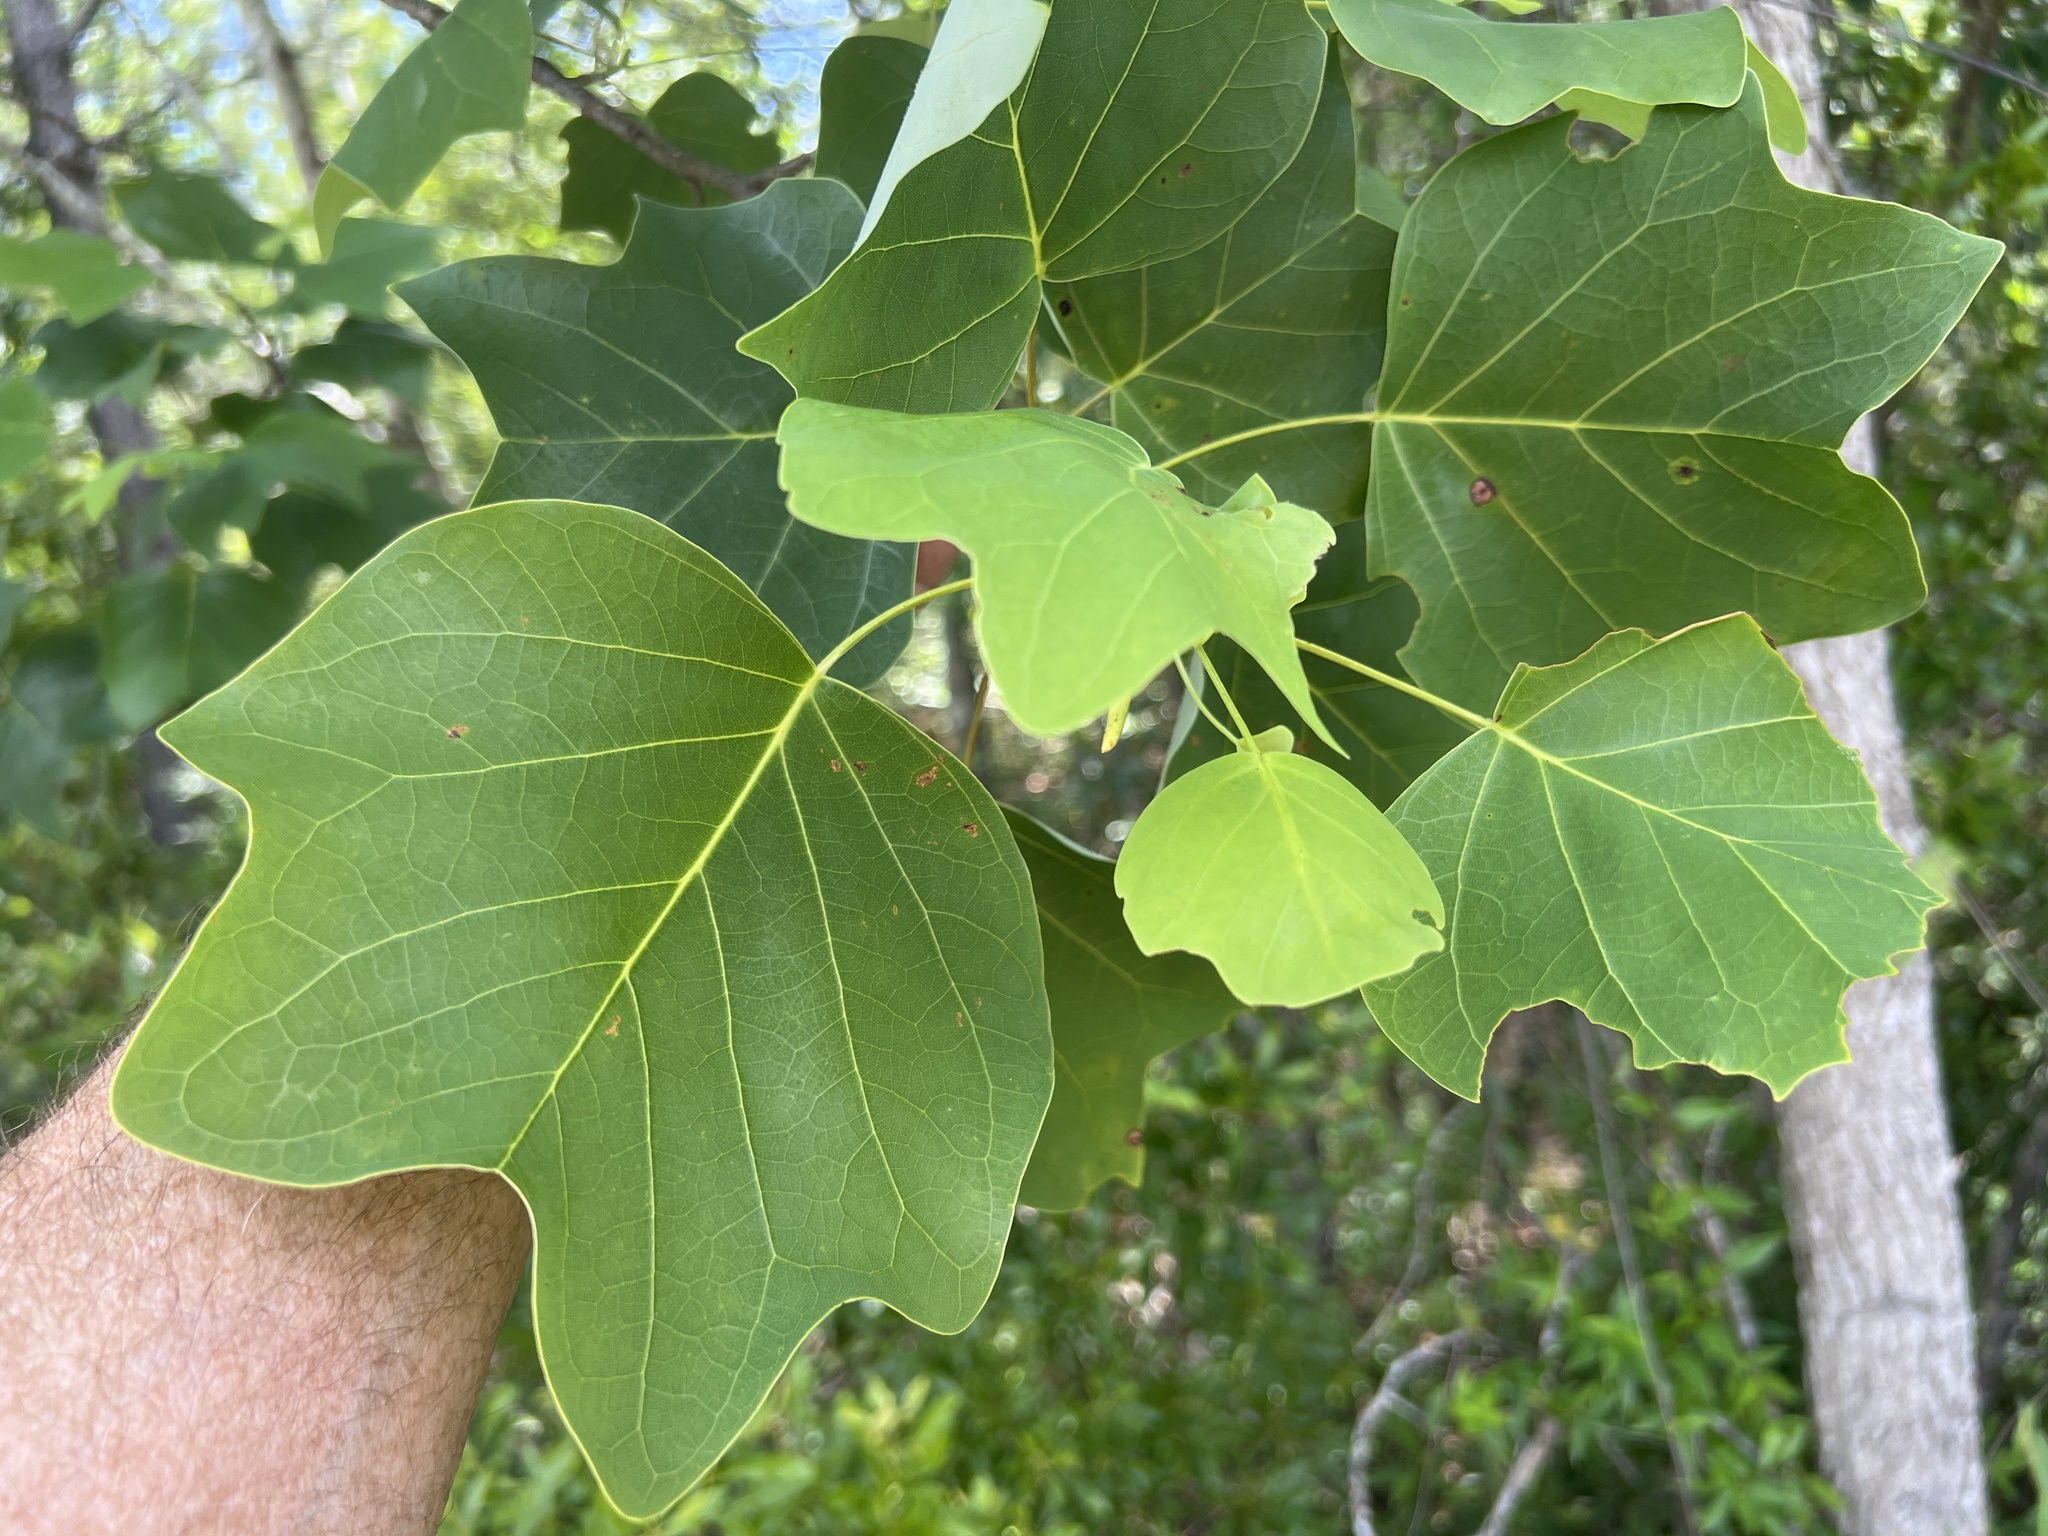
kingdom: Plantae
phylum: Tracheophyta
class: Magnoliopsida
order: Magnoliales
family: Magnoliaceae
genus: Liriodendron
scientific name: Liriodendron tulipifera
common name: Tulip tree
